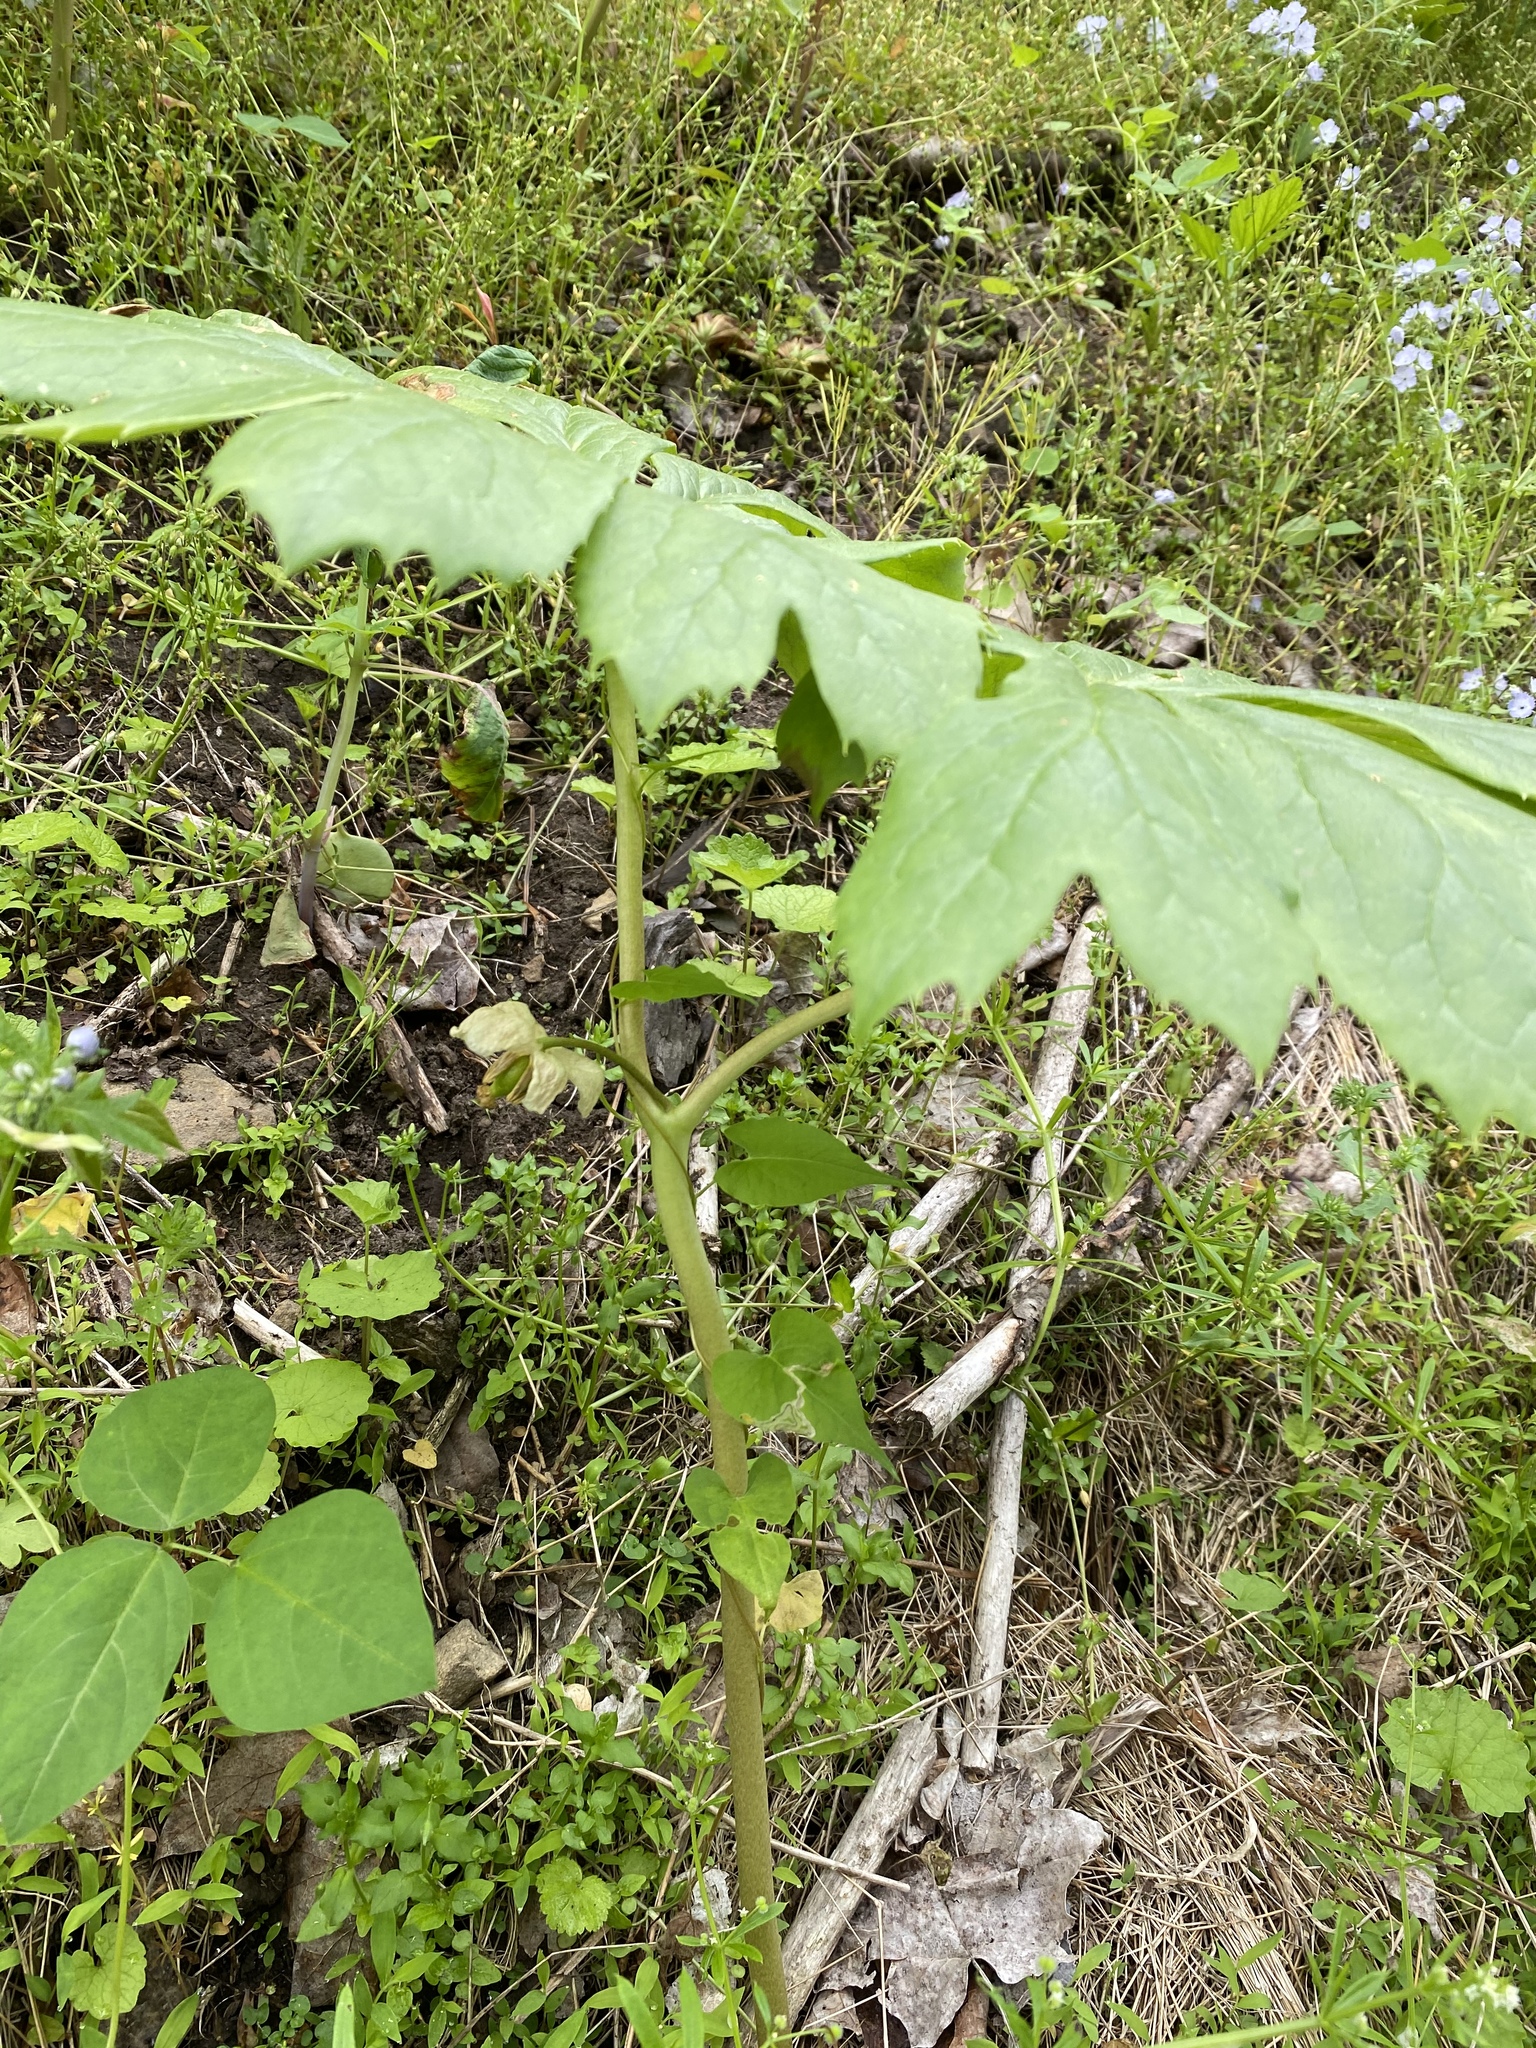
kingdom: Plantae
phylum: Tracheophyta
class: Magnoliopsida
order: Ranunculales
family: Berberidaceae
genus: Podophyllum
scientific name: Podophyllum peltatum
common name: Wild mandrake
